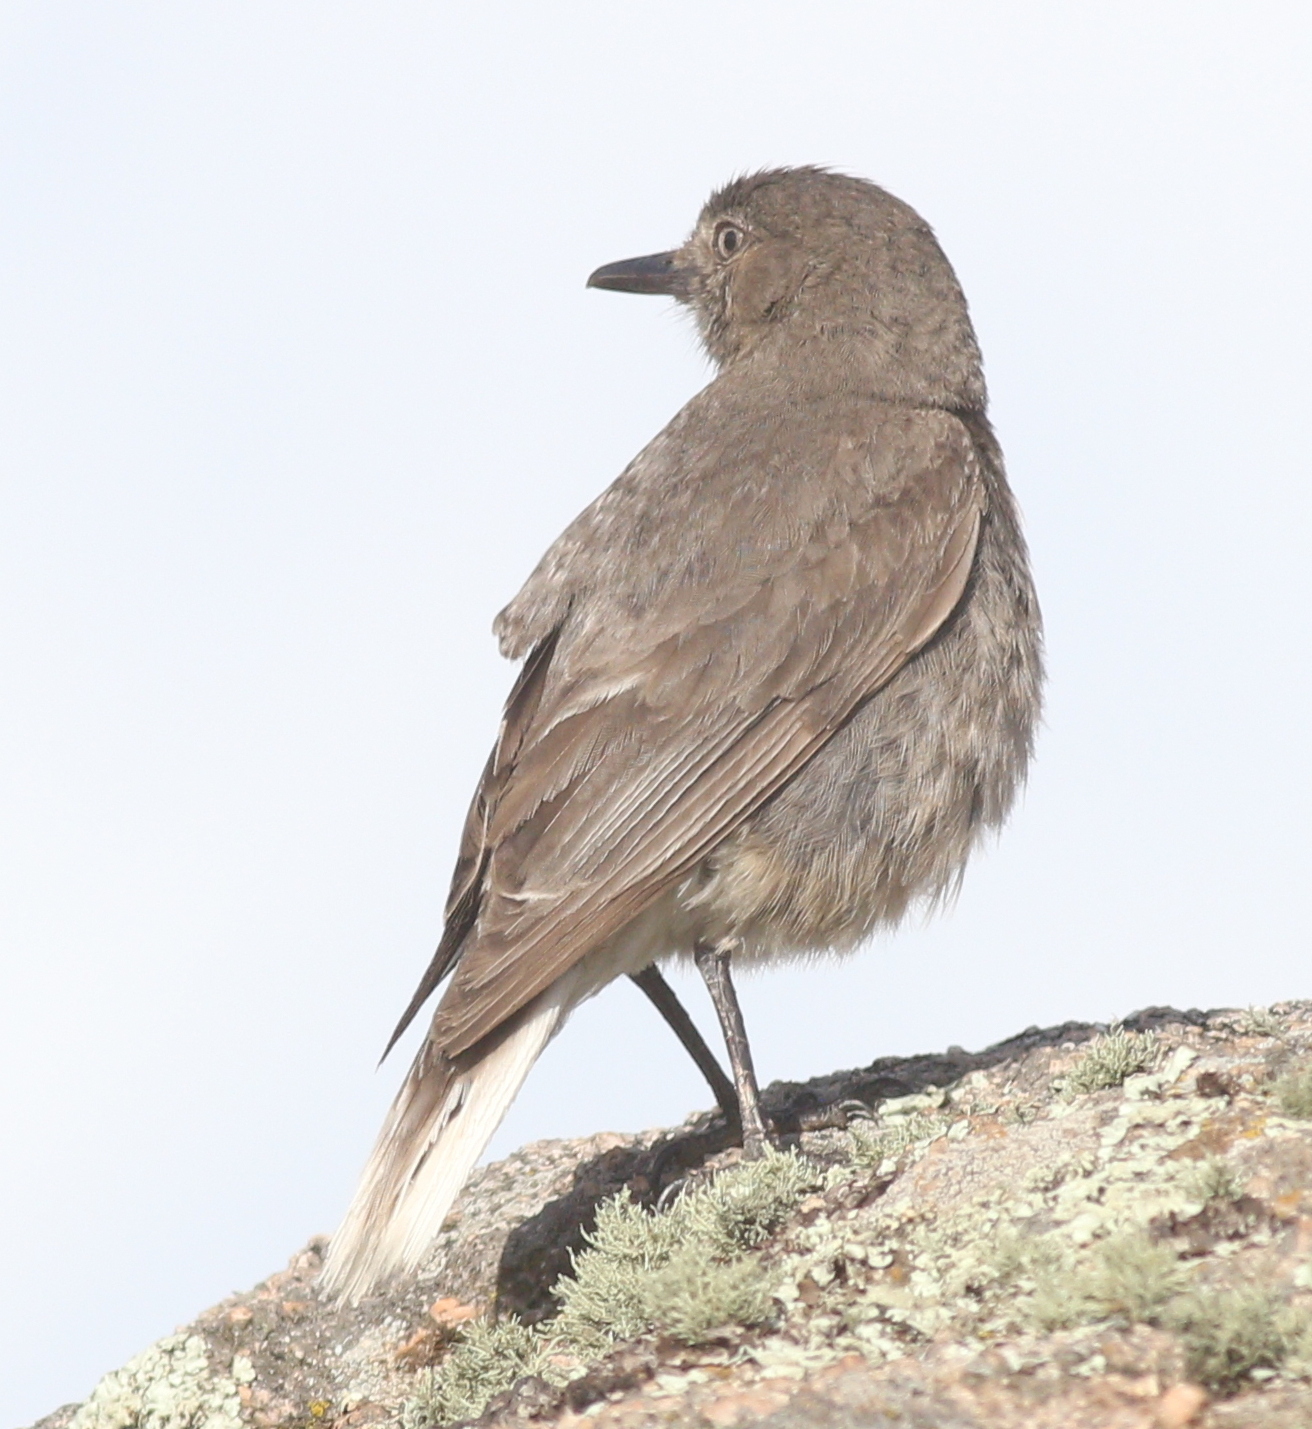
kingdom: Animalia
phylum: Chordata
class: Aves
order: Passeriformes
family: Tyrannidae
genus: Agriornis
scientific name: Agriornis montanus
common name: Black-billed shrike-tyrant
